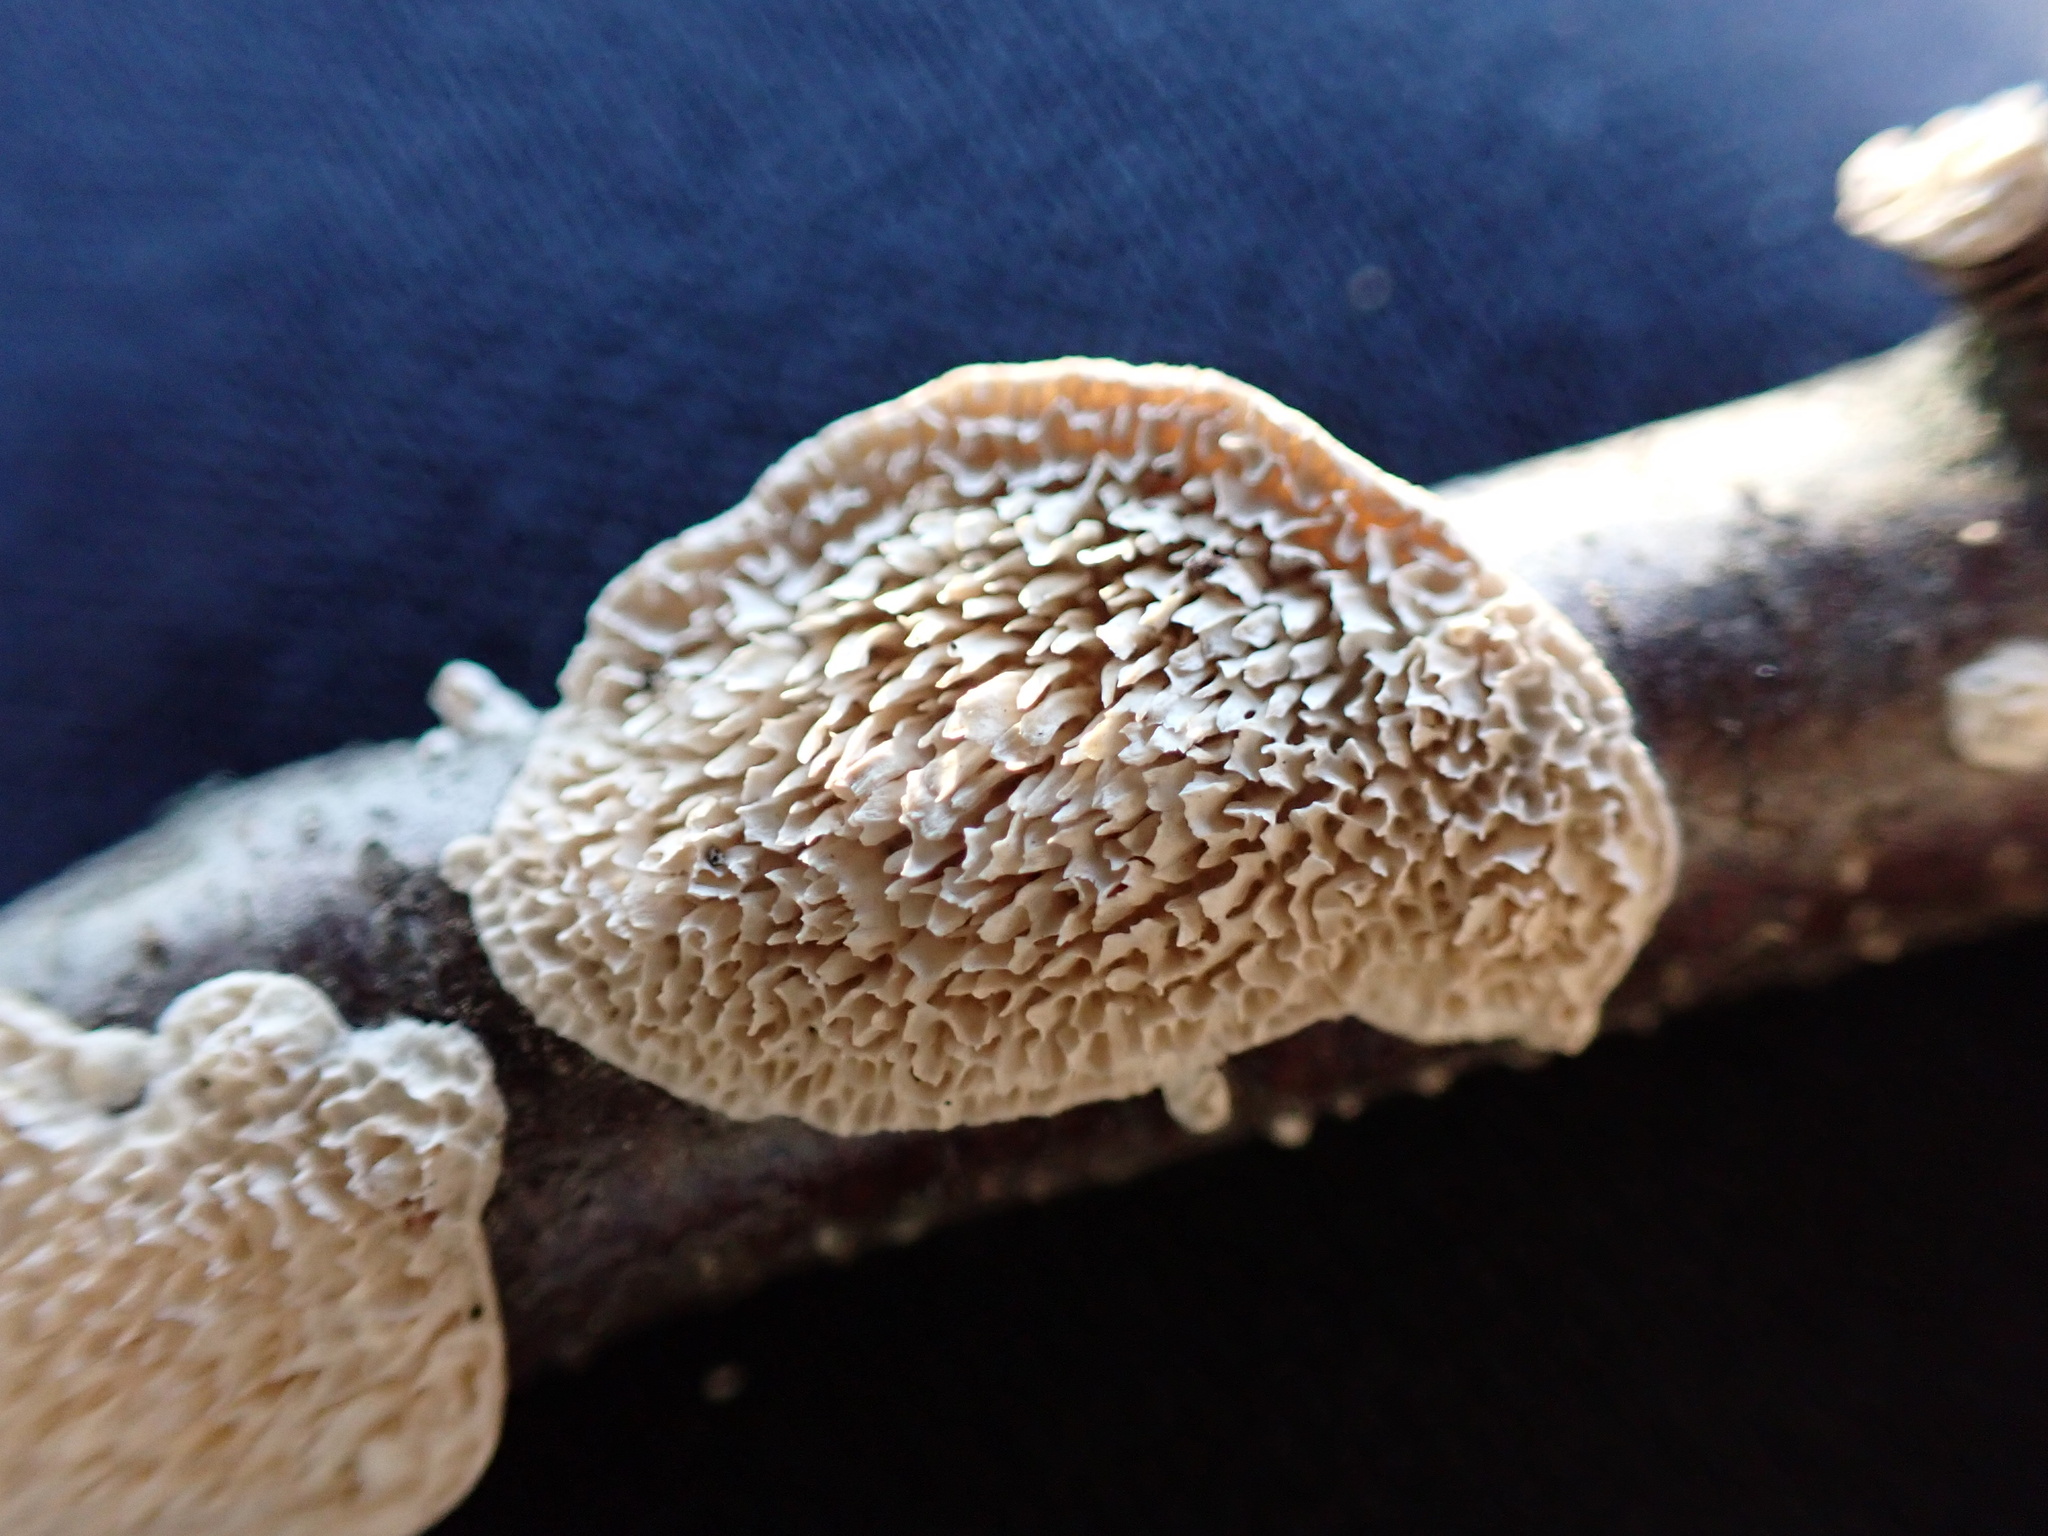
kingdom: Fungi
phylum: Basidiomycota
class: Agaricomycetes
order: Polyporales
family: Irpicaceae
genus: Irpex
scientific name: Irpex lacteus
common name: Milk-white toothed polypore
